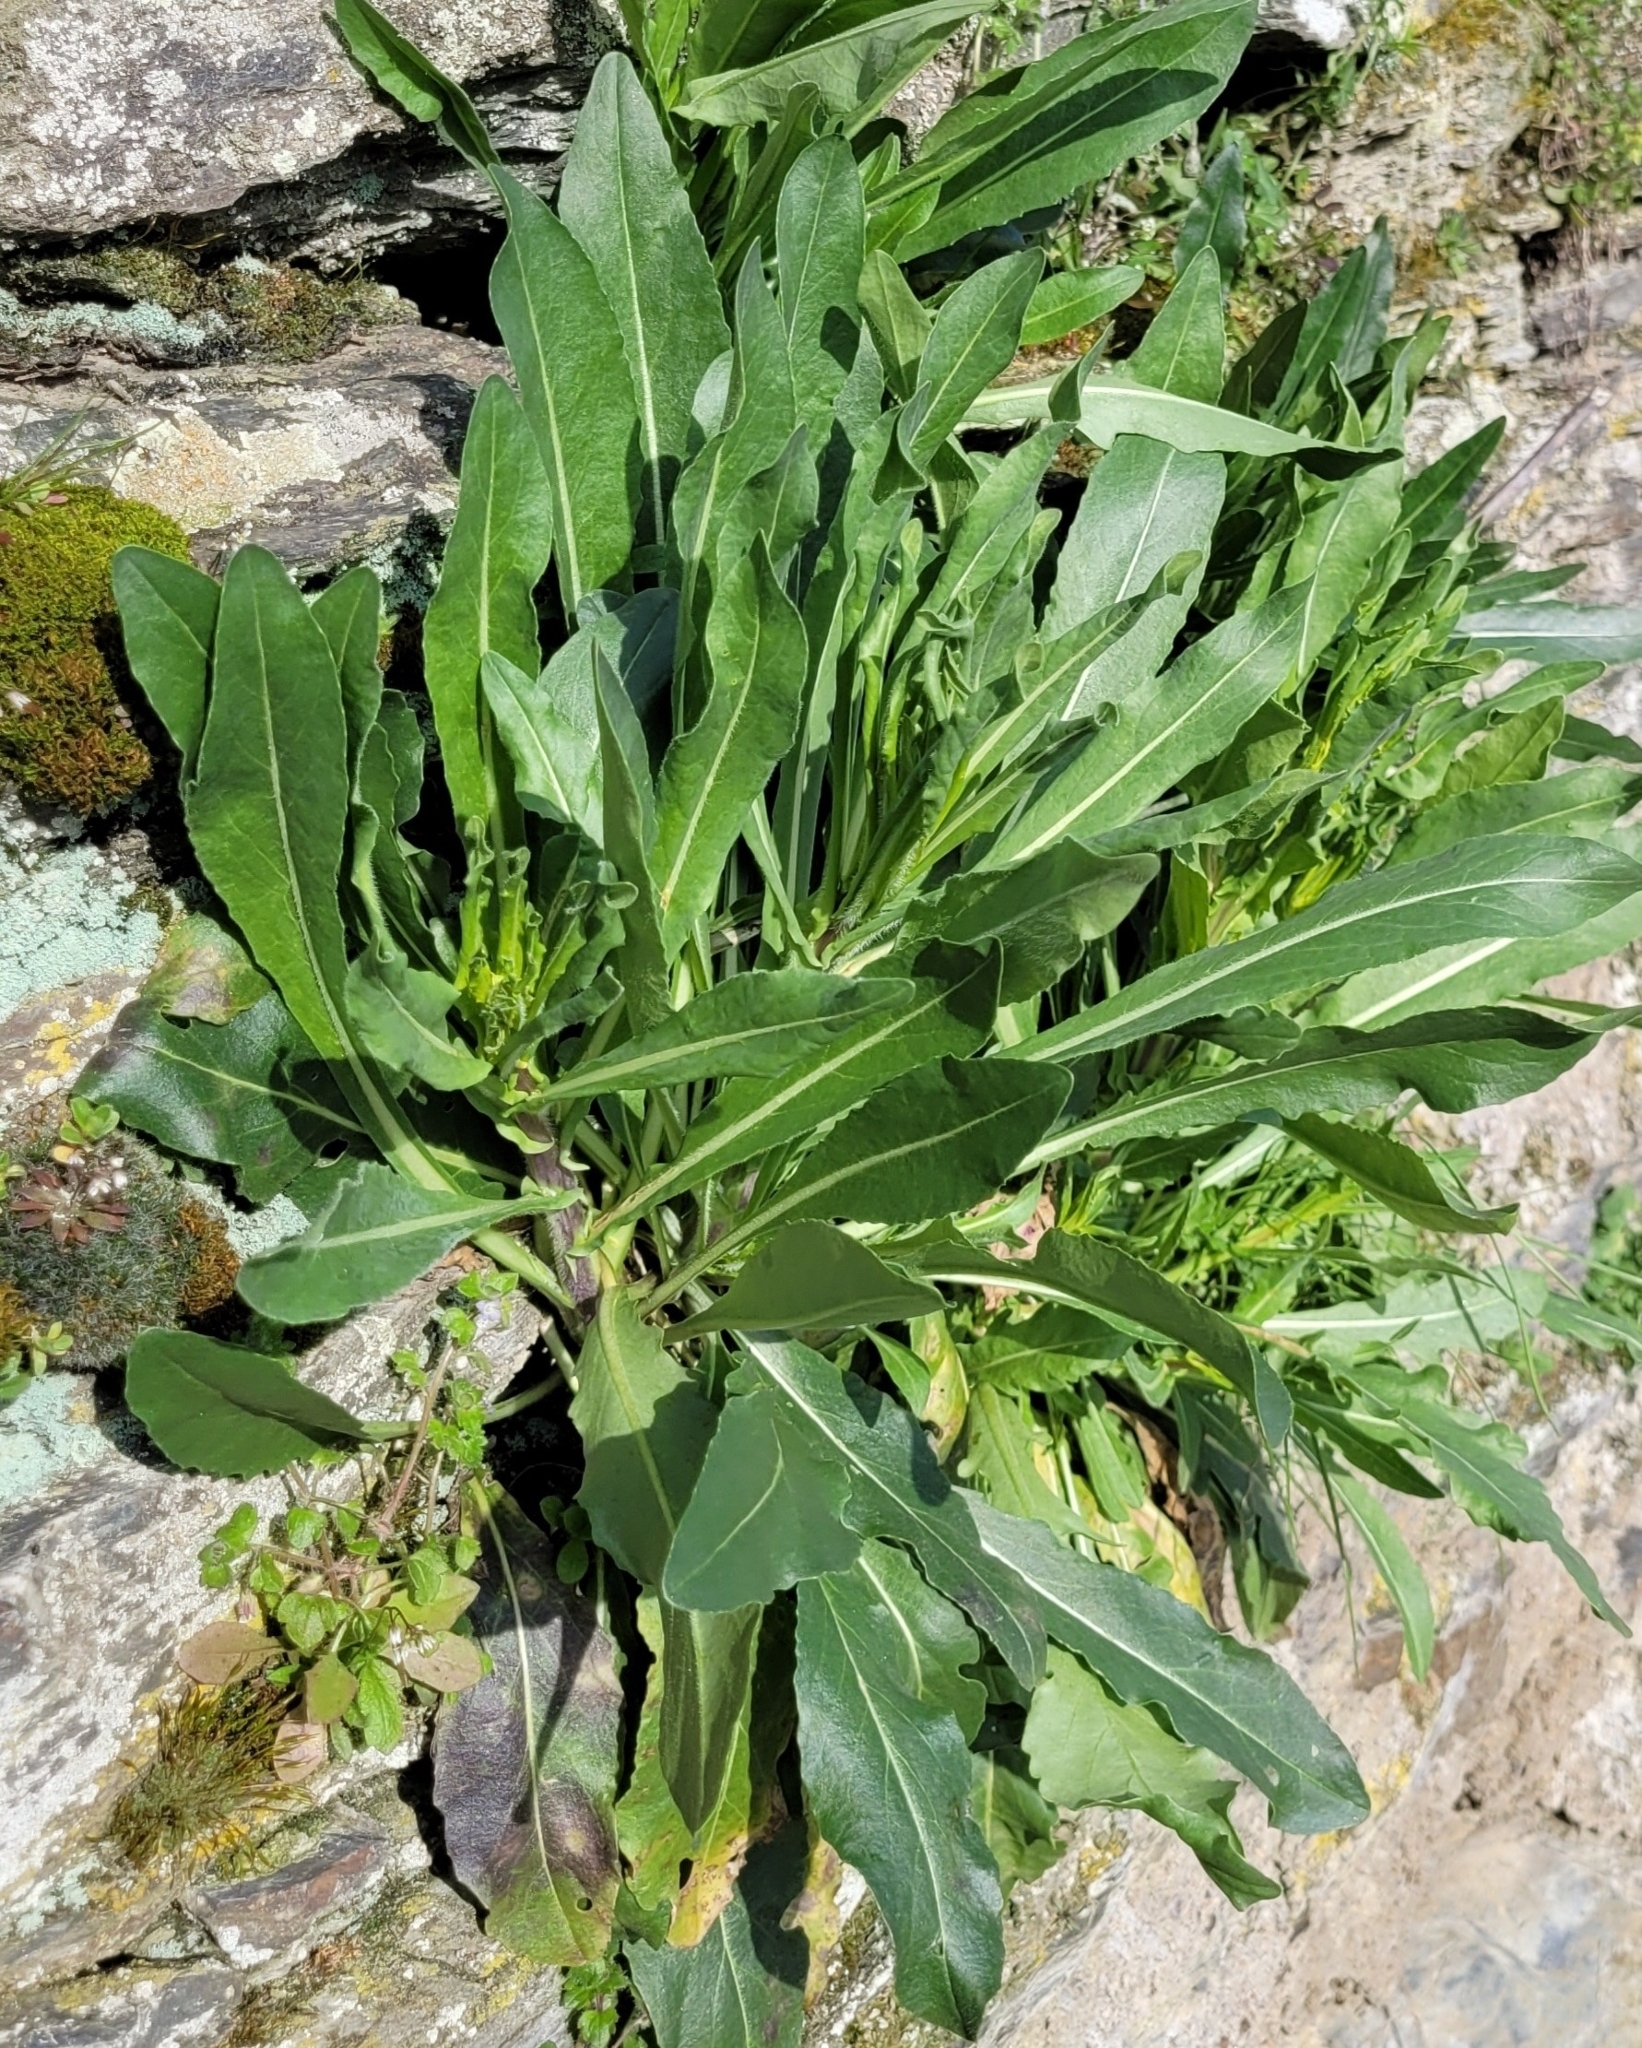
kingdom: Plantae
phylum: Tracheophyta
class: Magnoliopsida
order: Brassicales
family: Brassicaceae
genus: Isatis
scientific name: Isatis tinctoria
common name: Woad
